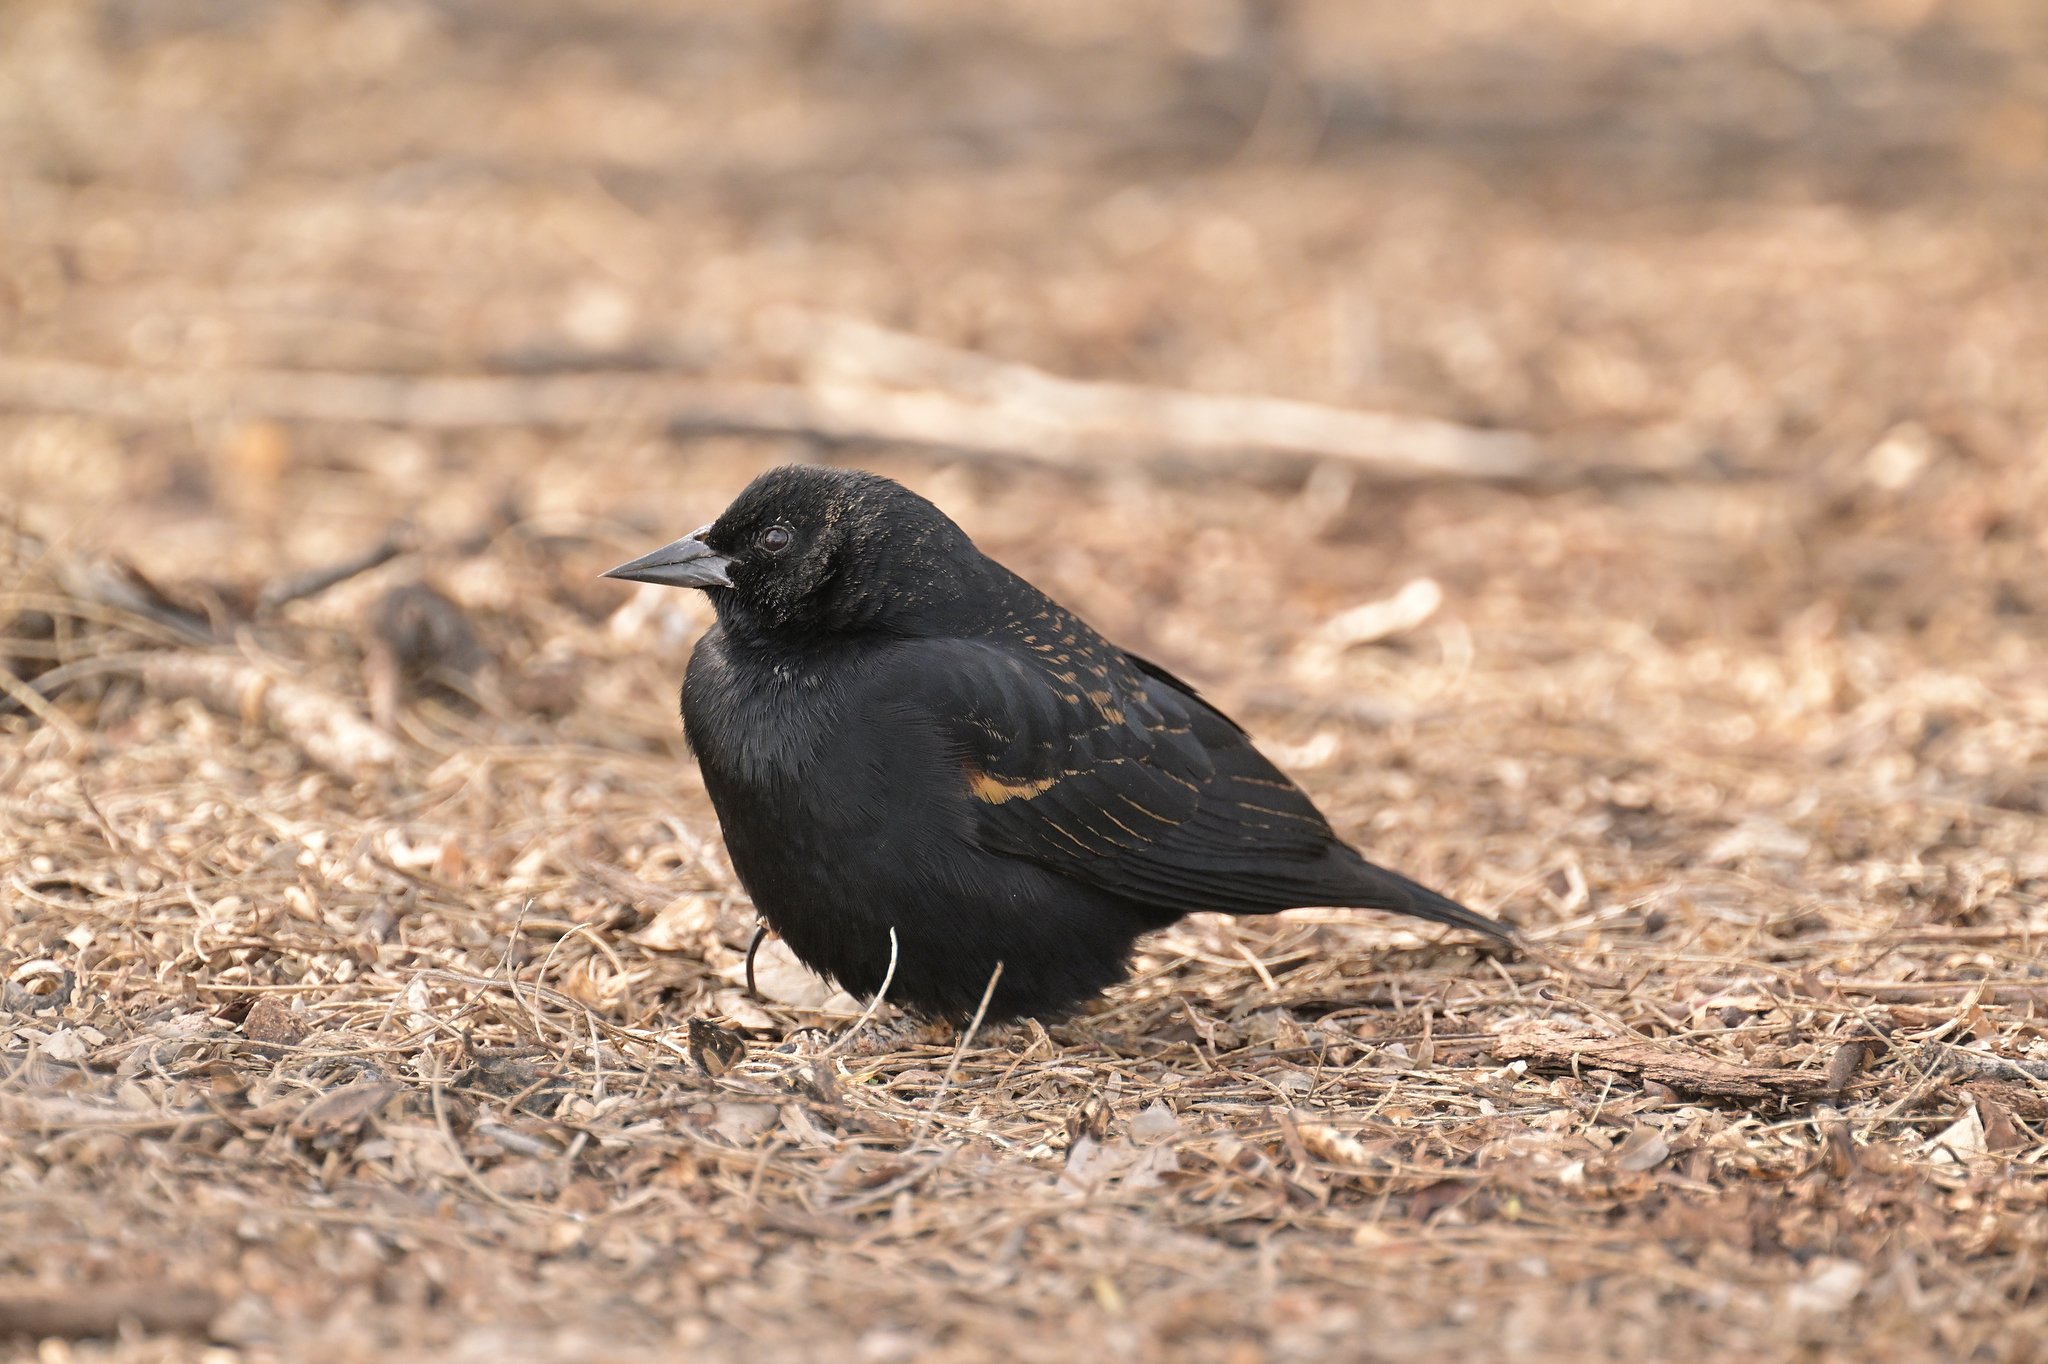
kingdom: Animalia
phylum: Chordata
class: Aves
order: Passeriformes
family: Icteridae
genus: Agelaius
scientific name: Agelaius phoeniceus
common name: Red-winged blackbird
